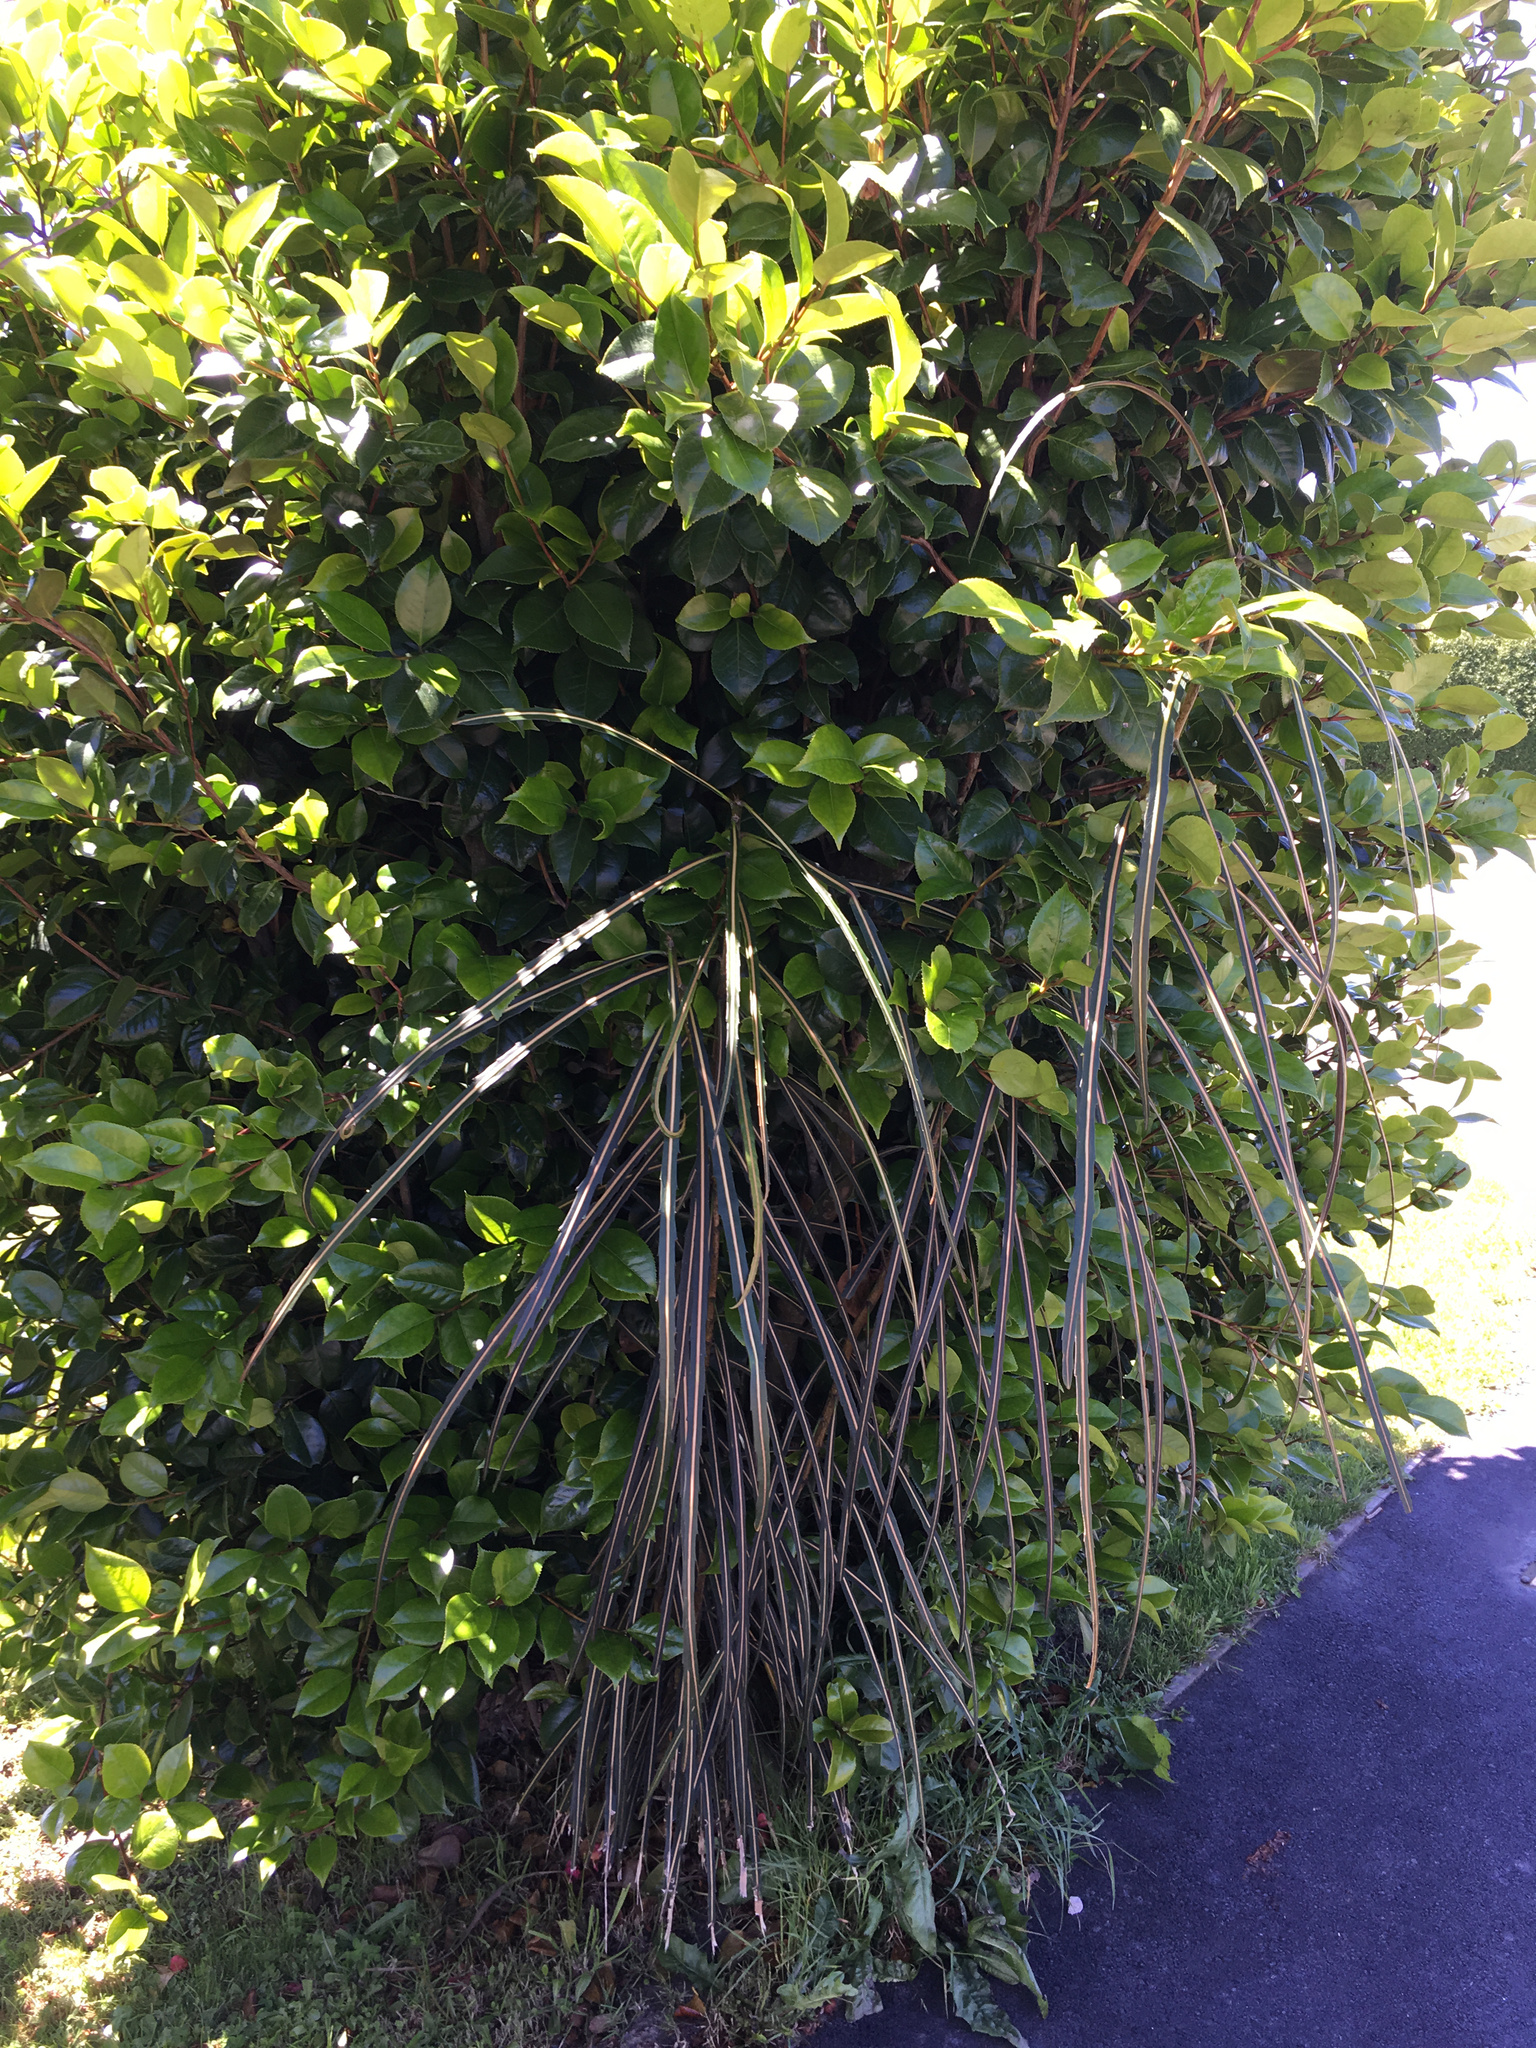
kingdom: Plantae
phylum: Tracheophyta
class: Magnoliopsida
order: Apiales
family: Araliaceae
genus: Pseudopanax
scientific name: Pseudopanax crassifolius
